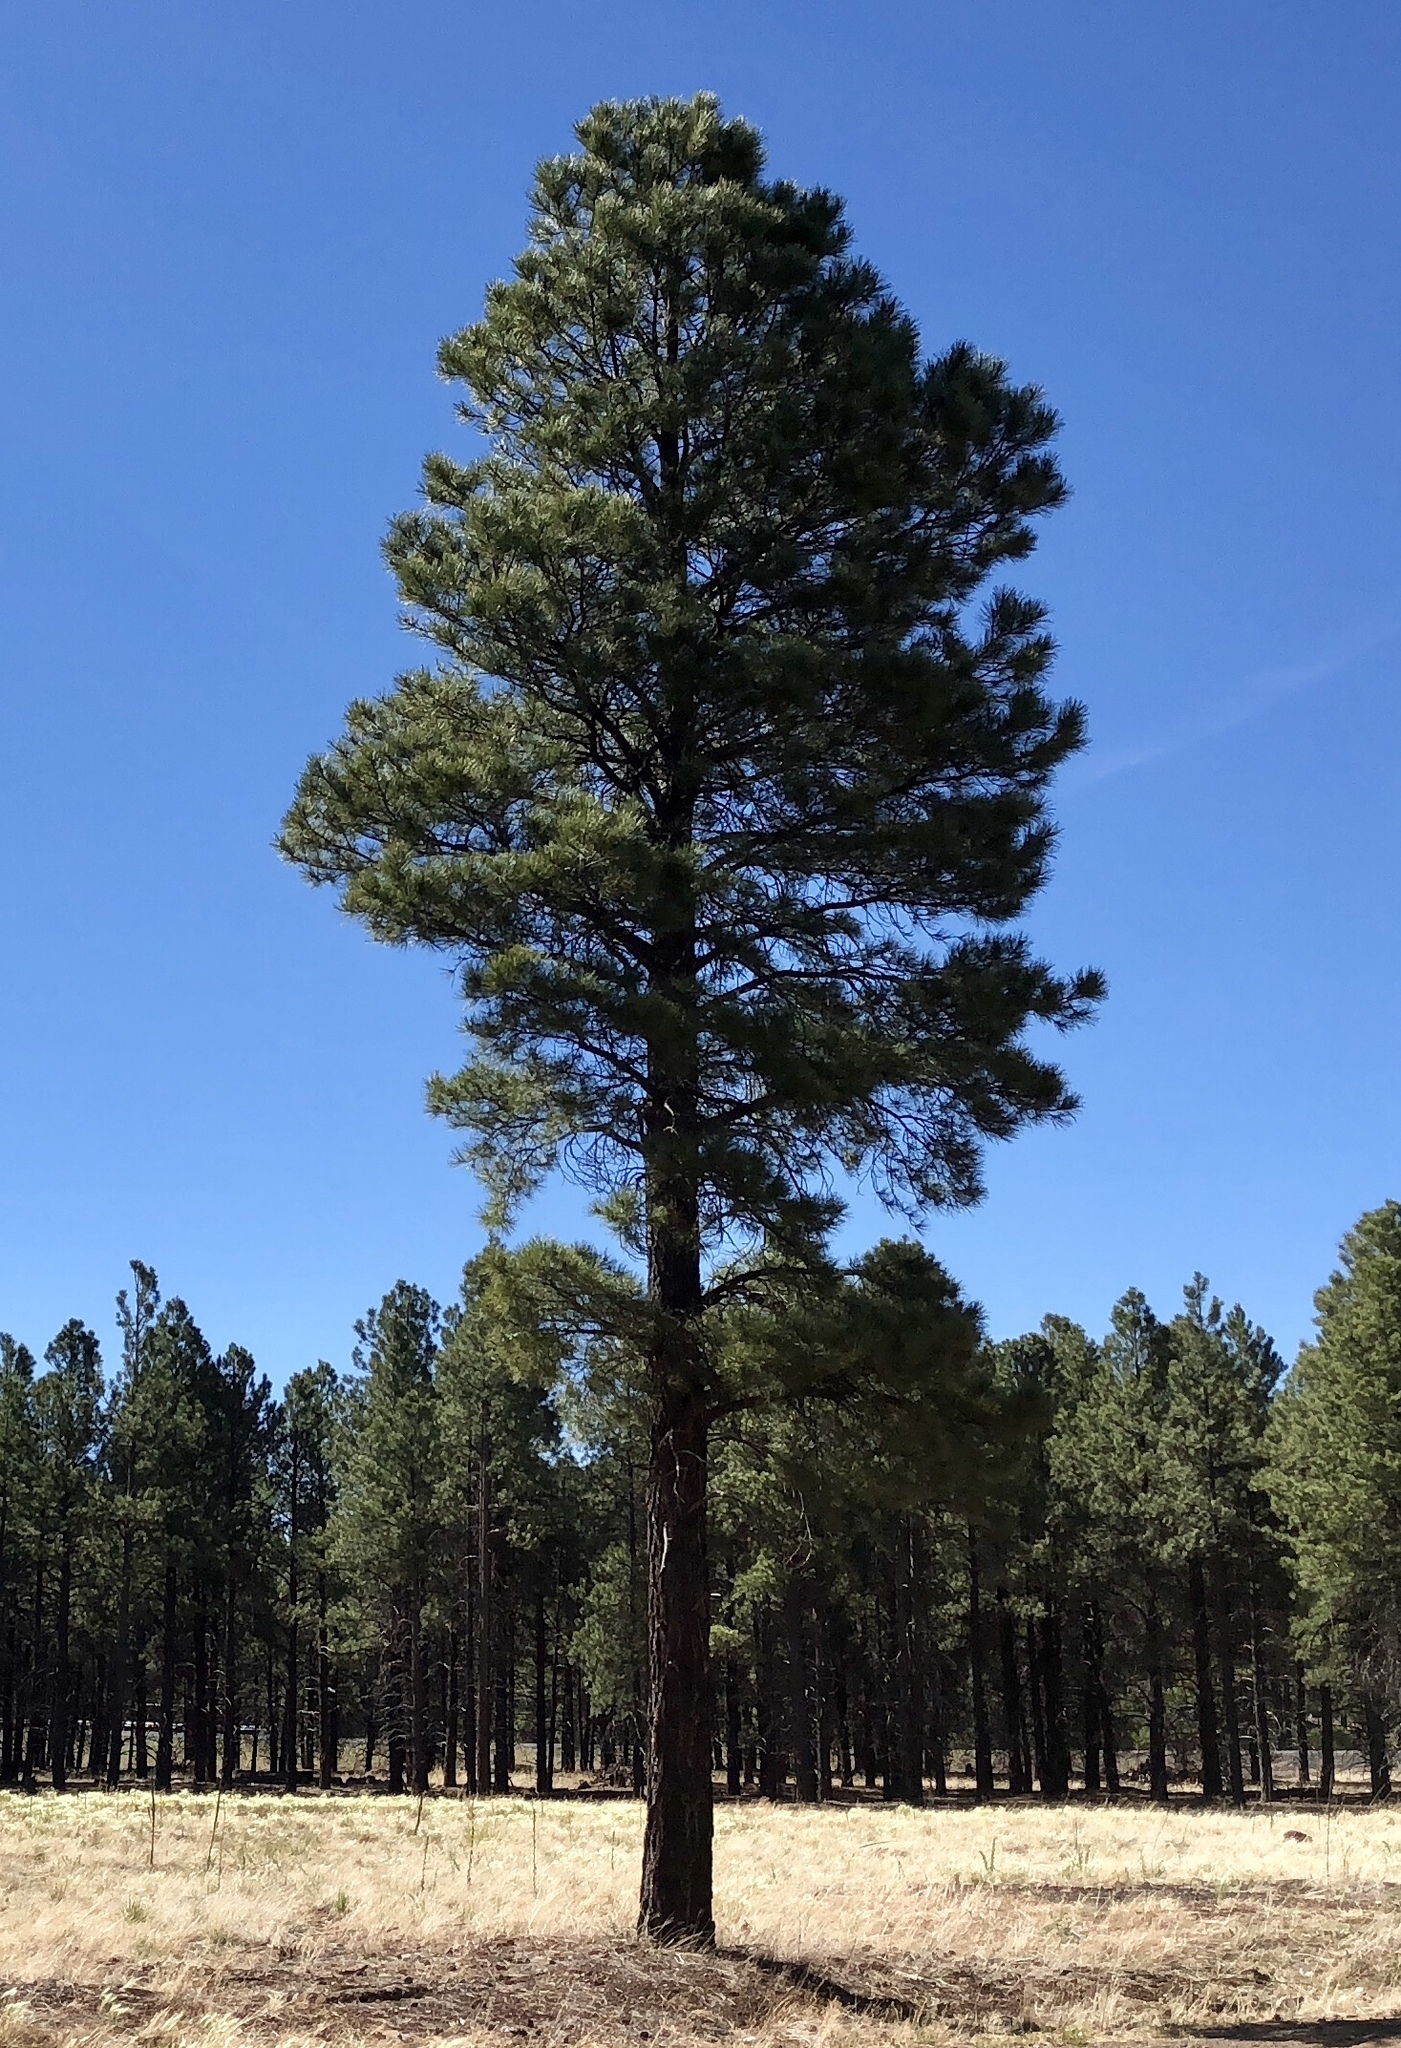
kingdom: Plantae
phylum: Tracheophyta
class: Pinopsida
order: Pinales
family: Pinaceae
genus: Pinus
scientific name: Pinus ponderosa
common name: Western yellow-pine
